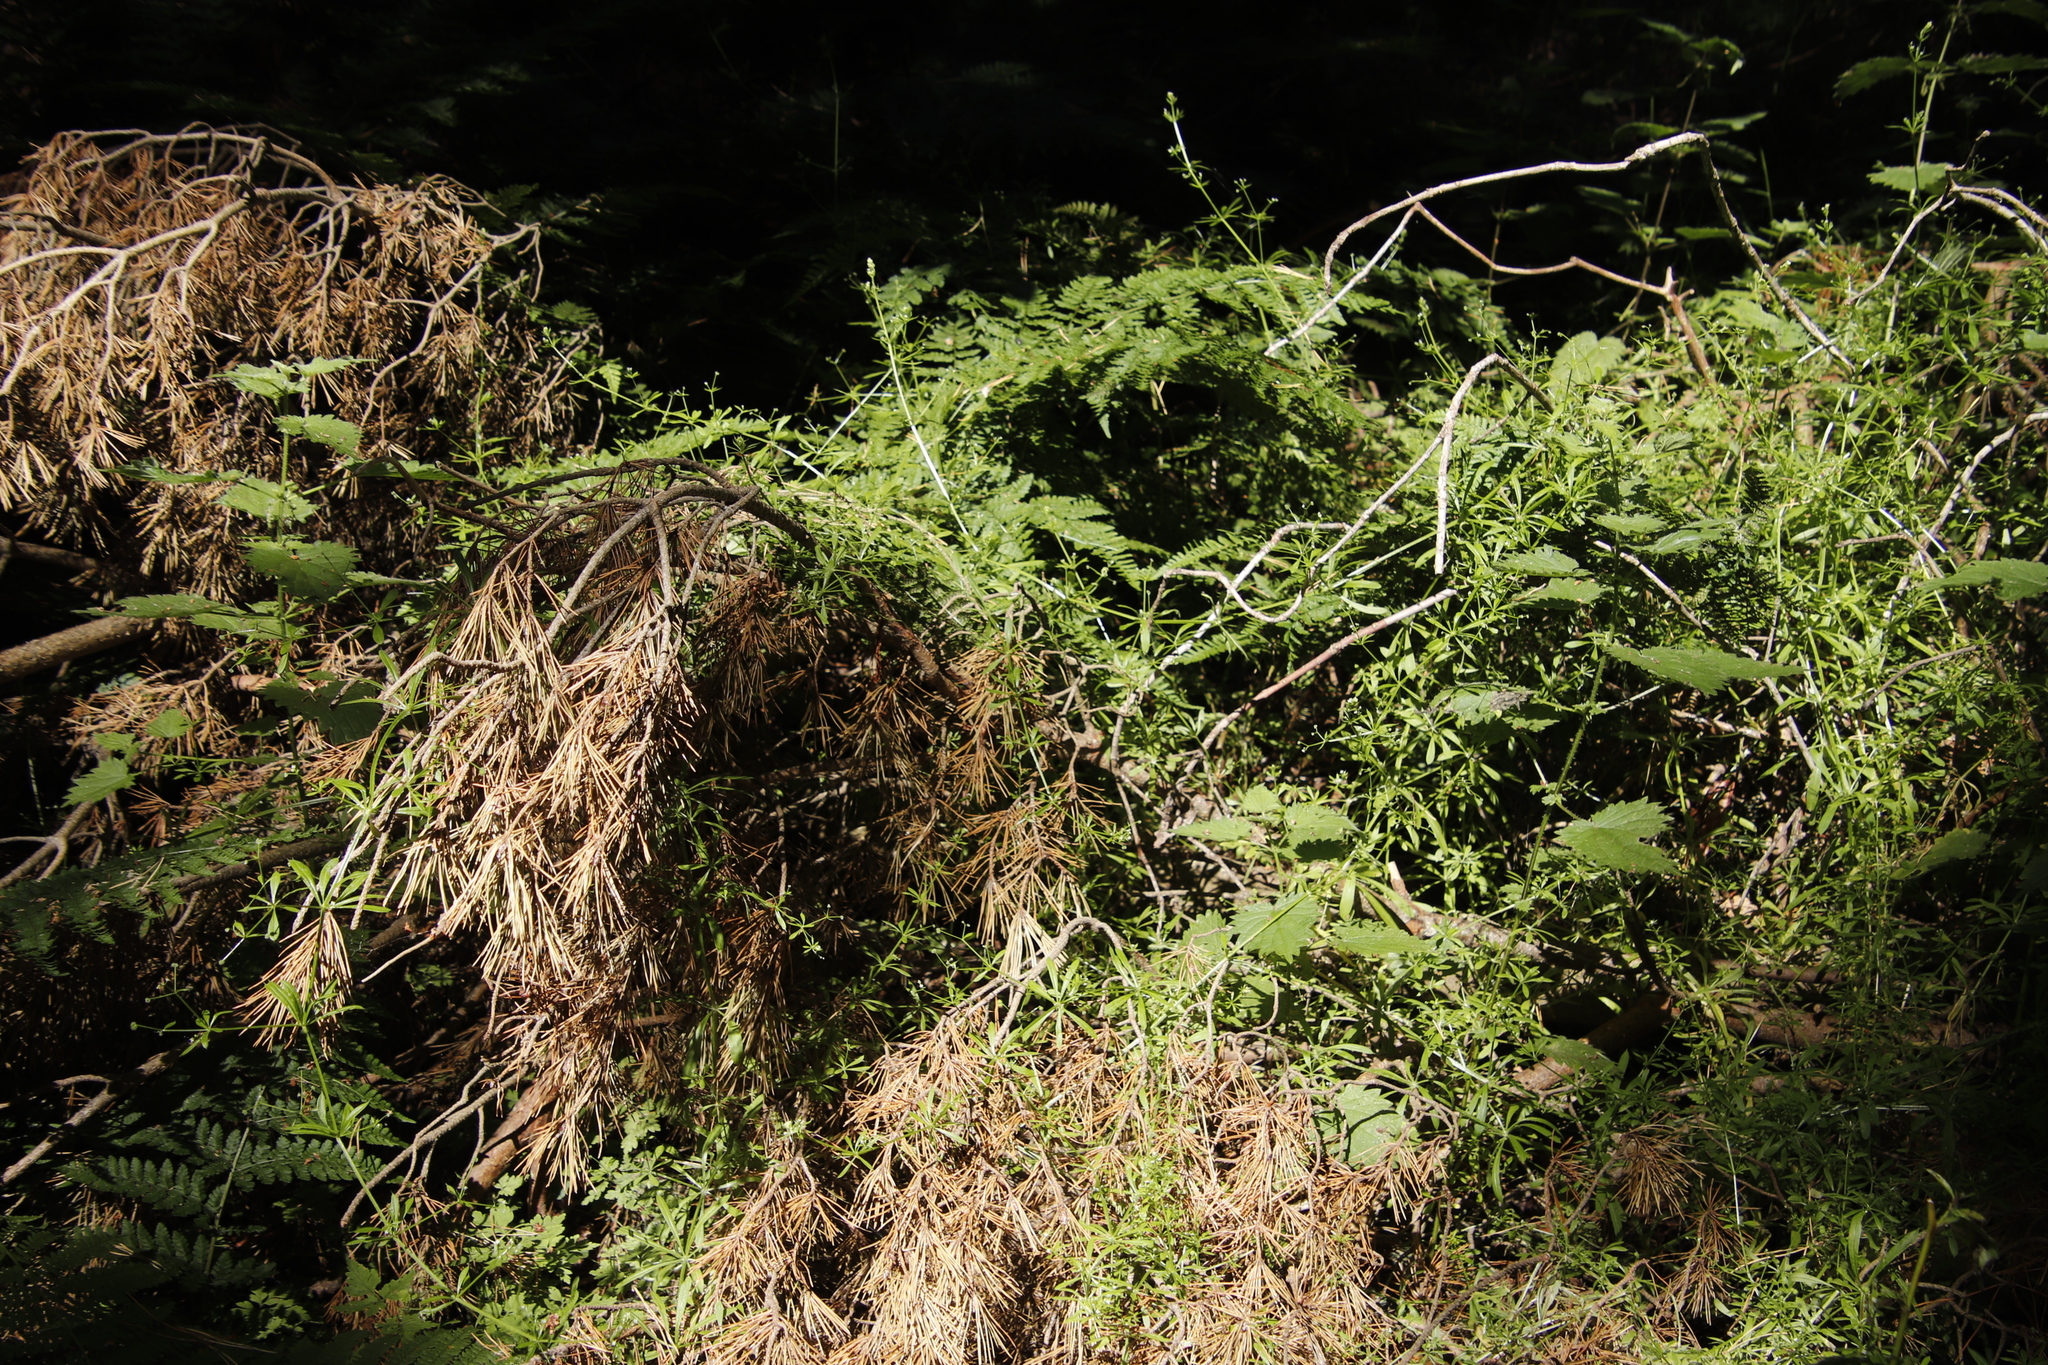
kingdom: Plantae
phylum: Tracheophyta
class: Magnoliopsida
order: Gentianales
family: Rubiaceae
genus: Galium
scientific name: Galium aparine
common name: Cleavers
